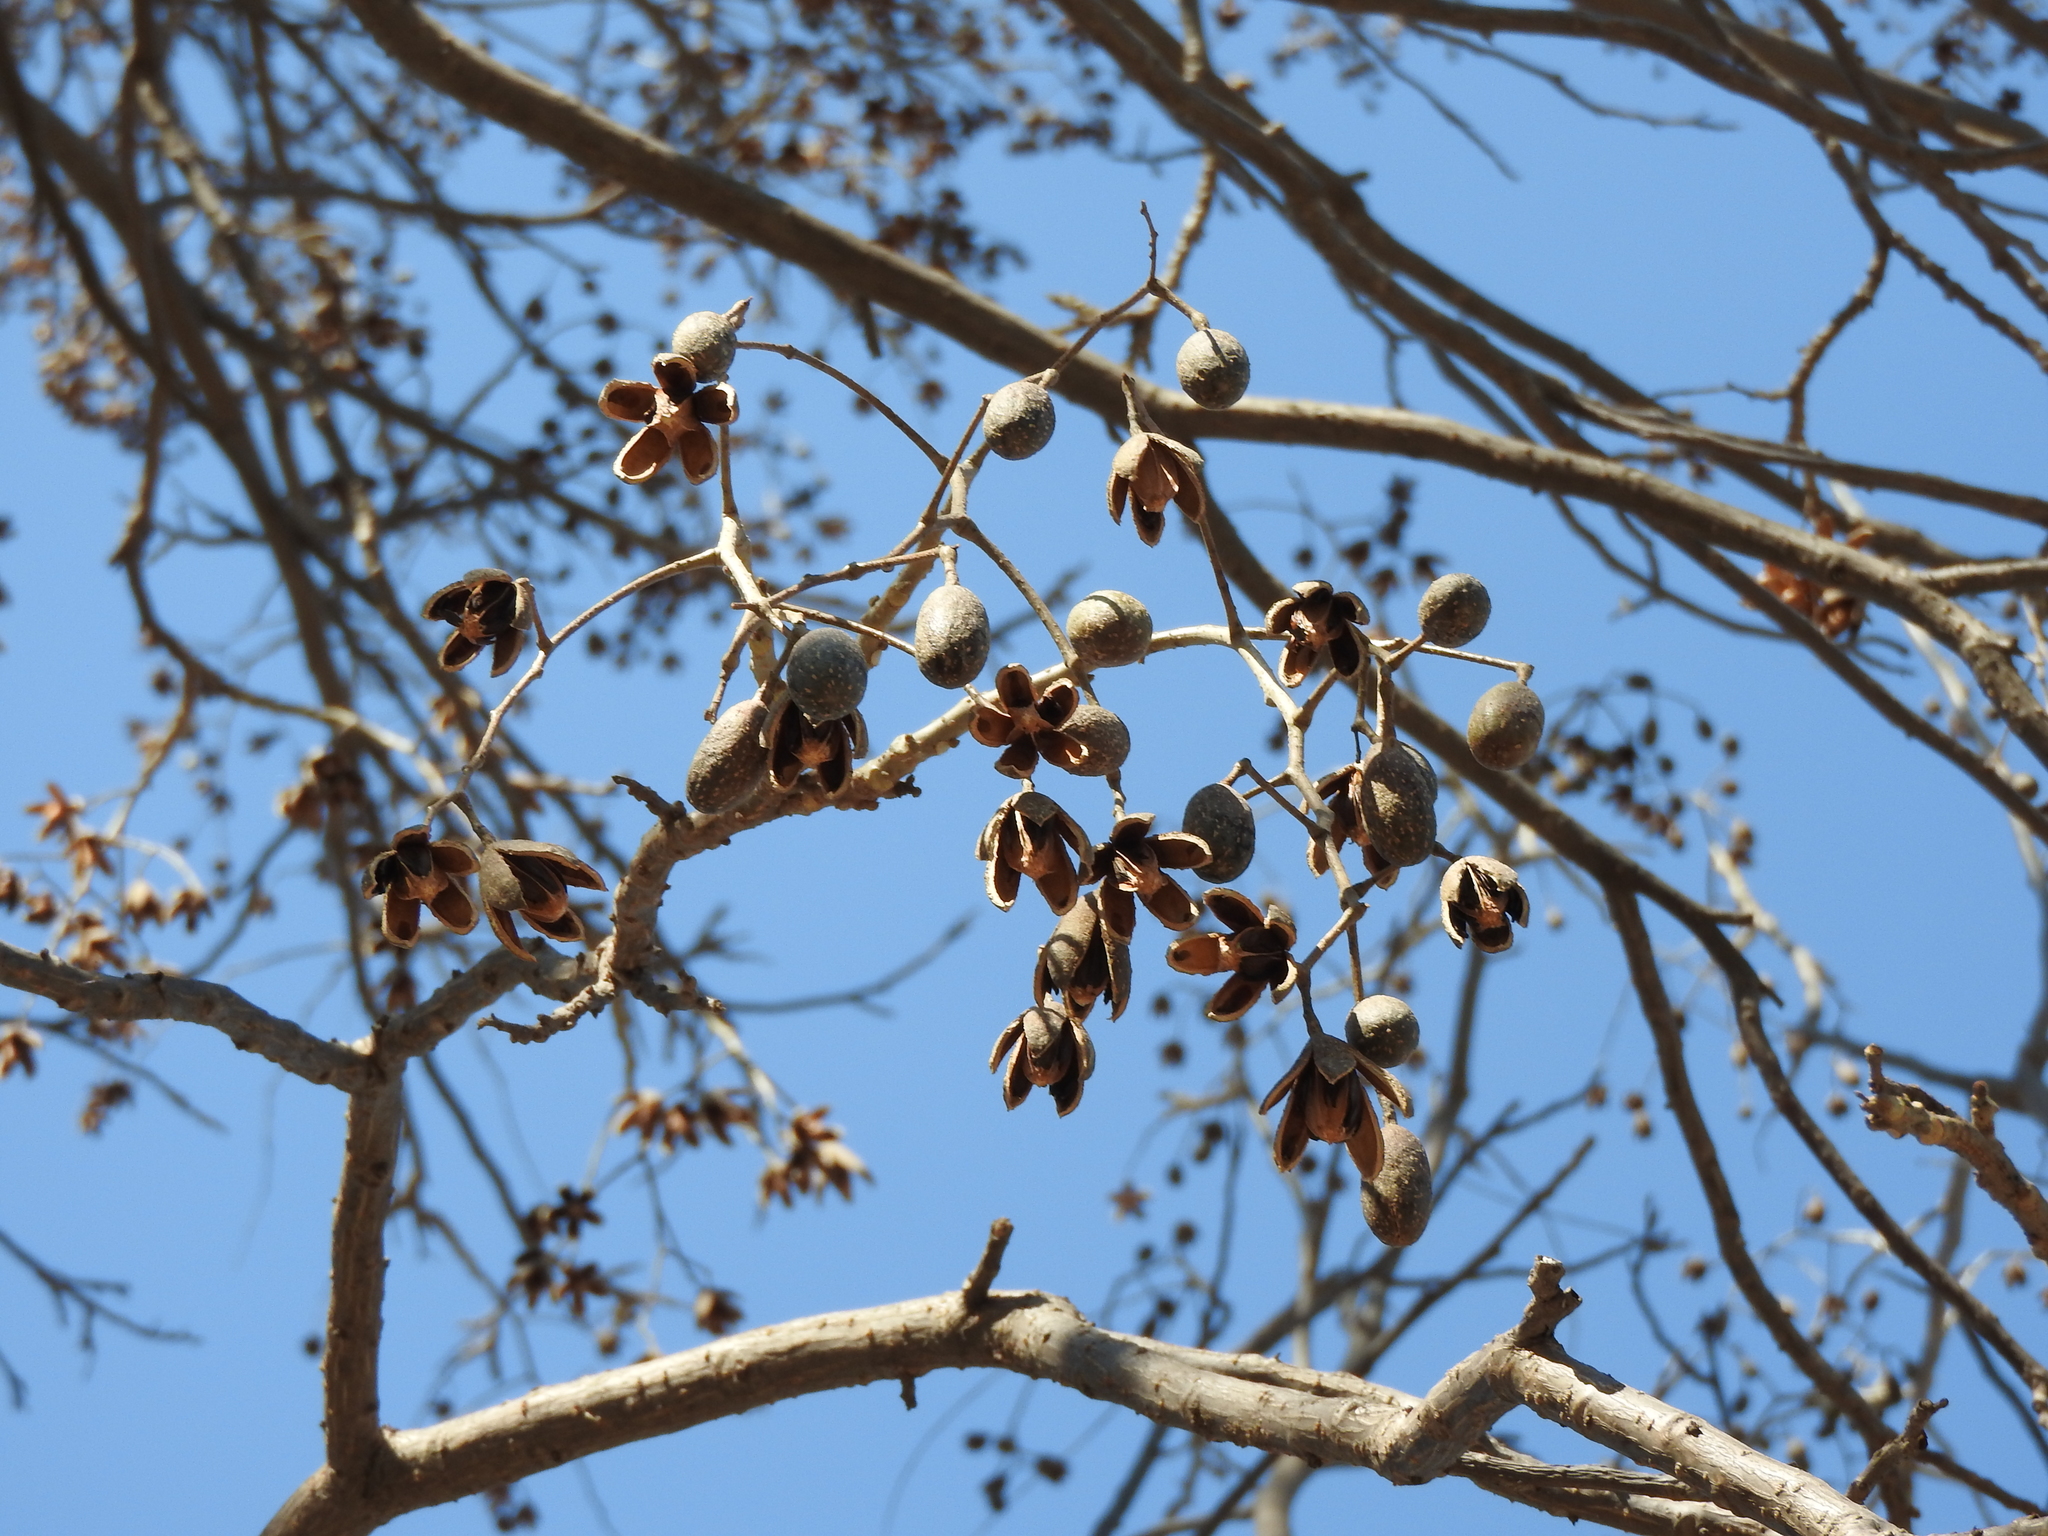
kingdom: Plantae
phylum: Tracheophyta
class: Magnoliopsida
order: Sapindales
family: Meliaceae
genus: Cedrela
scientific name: Cedrela odorata
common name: Red cedar
